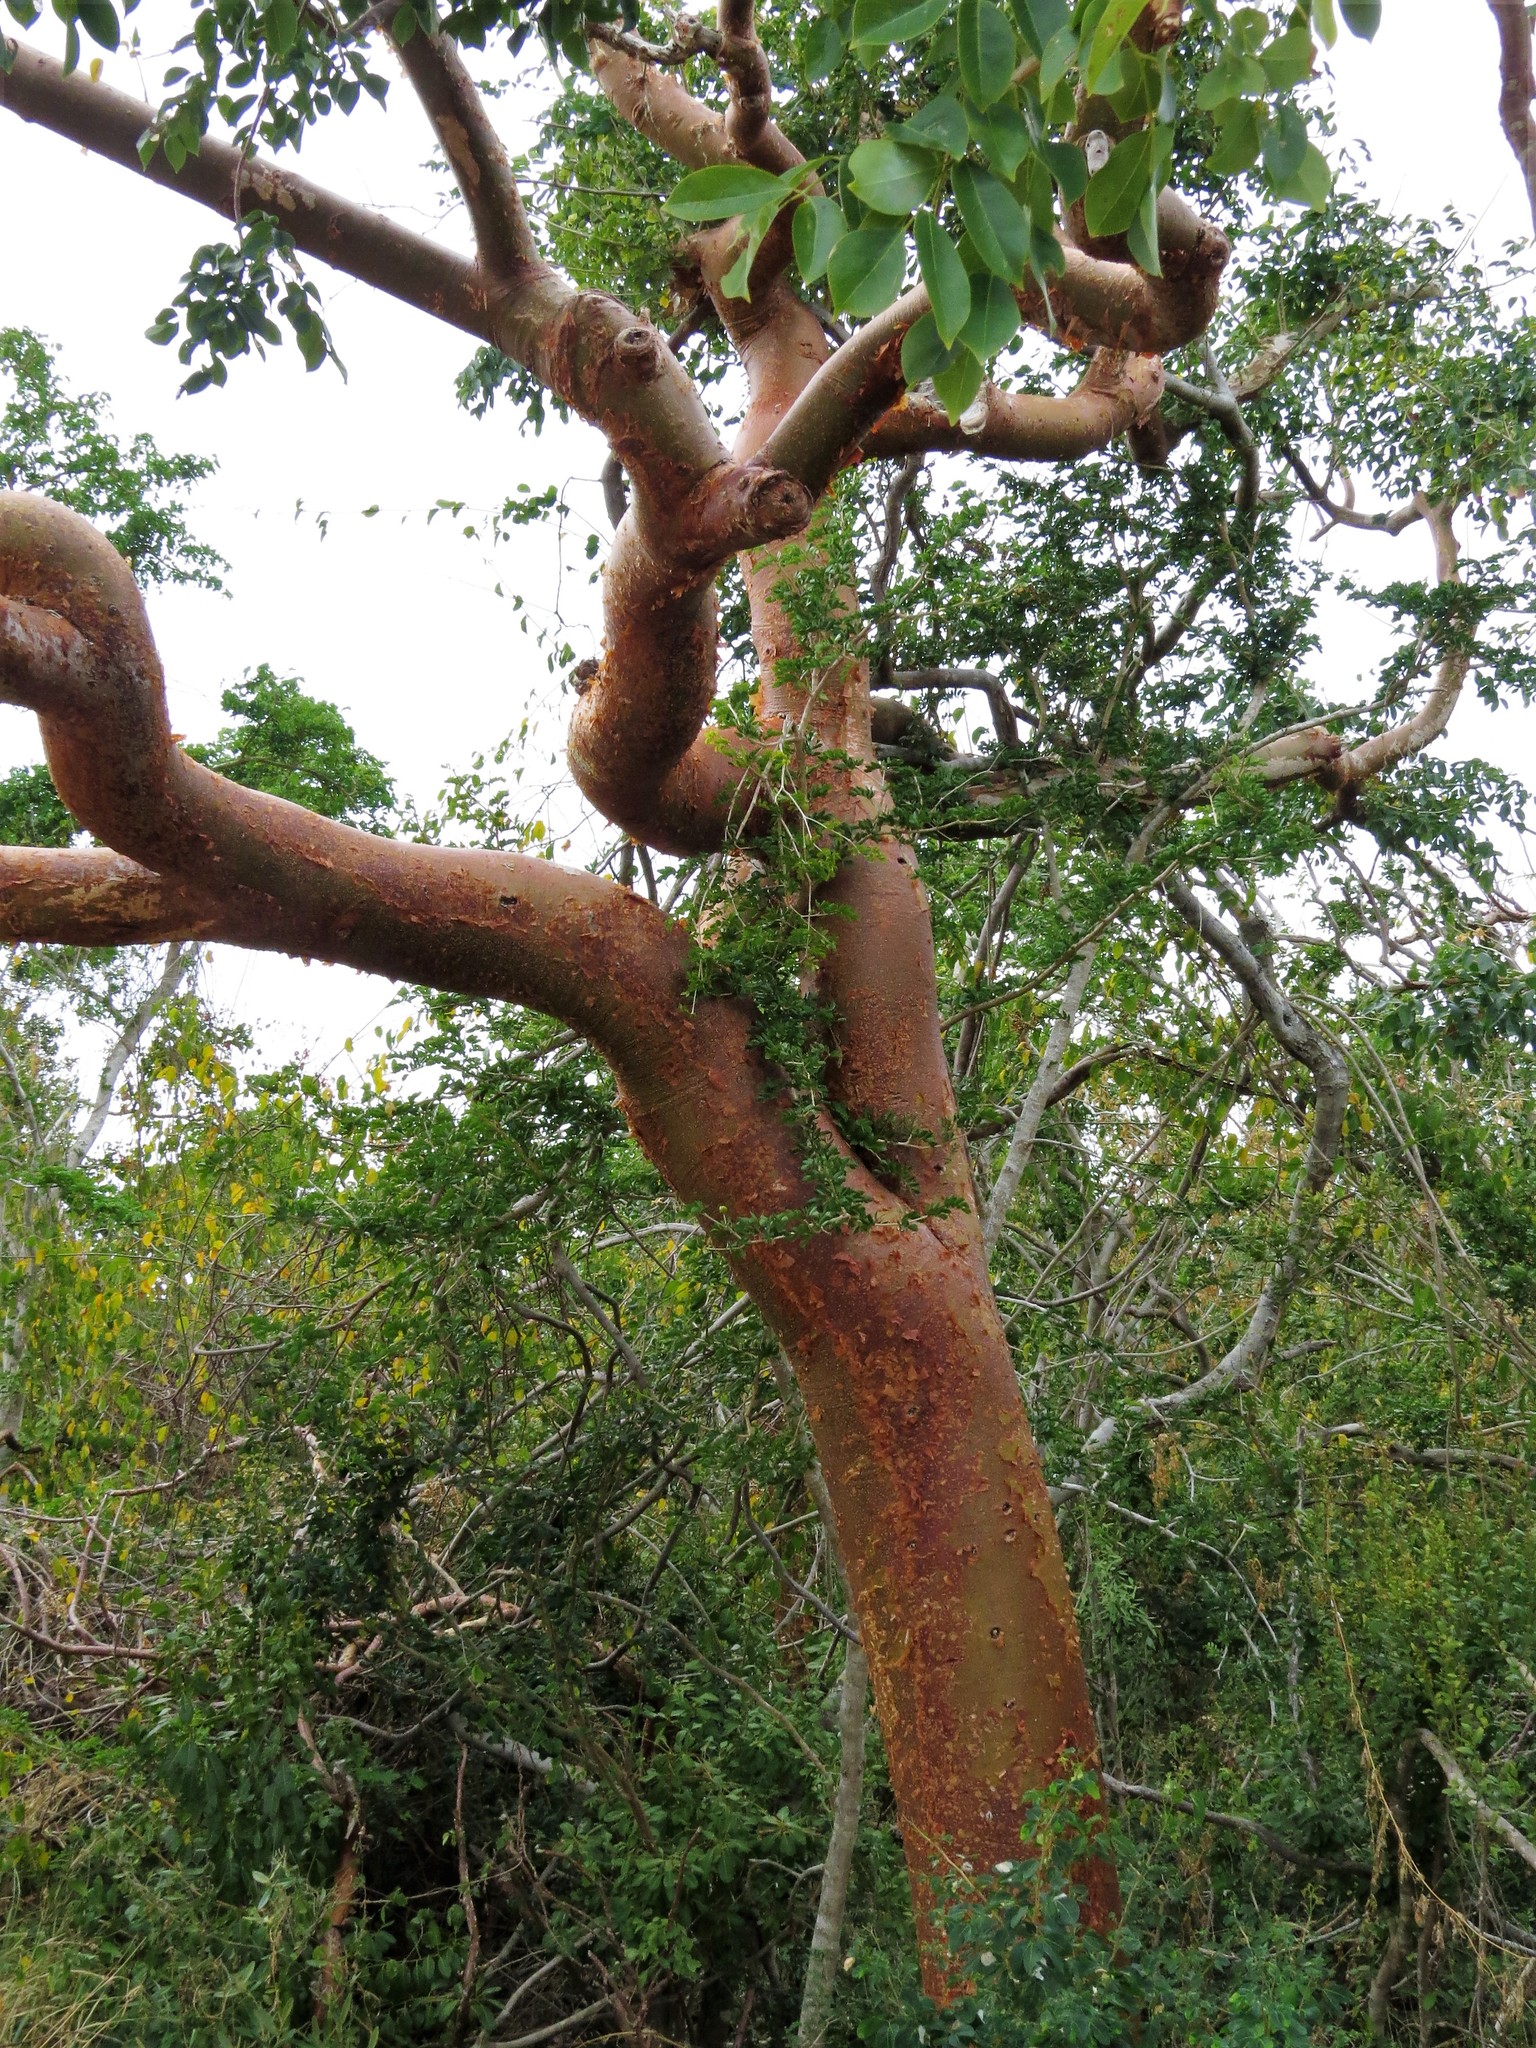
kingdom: Plantae
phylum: Tracheophyta
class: Magnoliopsida
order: Sapindales
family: Burseraceae
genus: Bursera
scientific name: Bursera simaruba
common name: Turpentine tree
